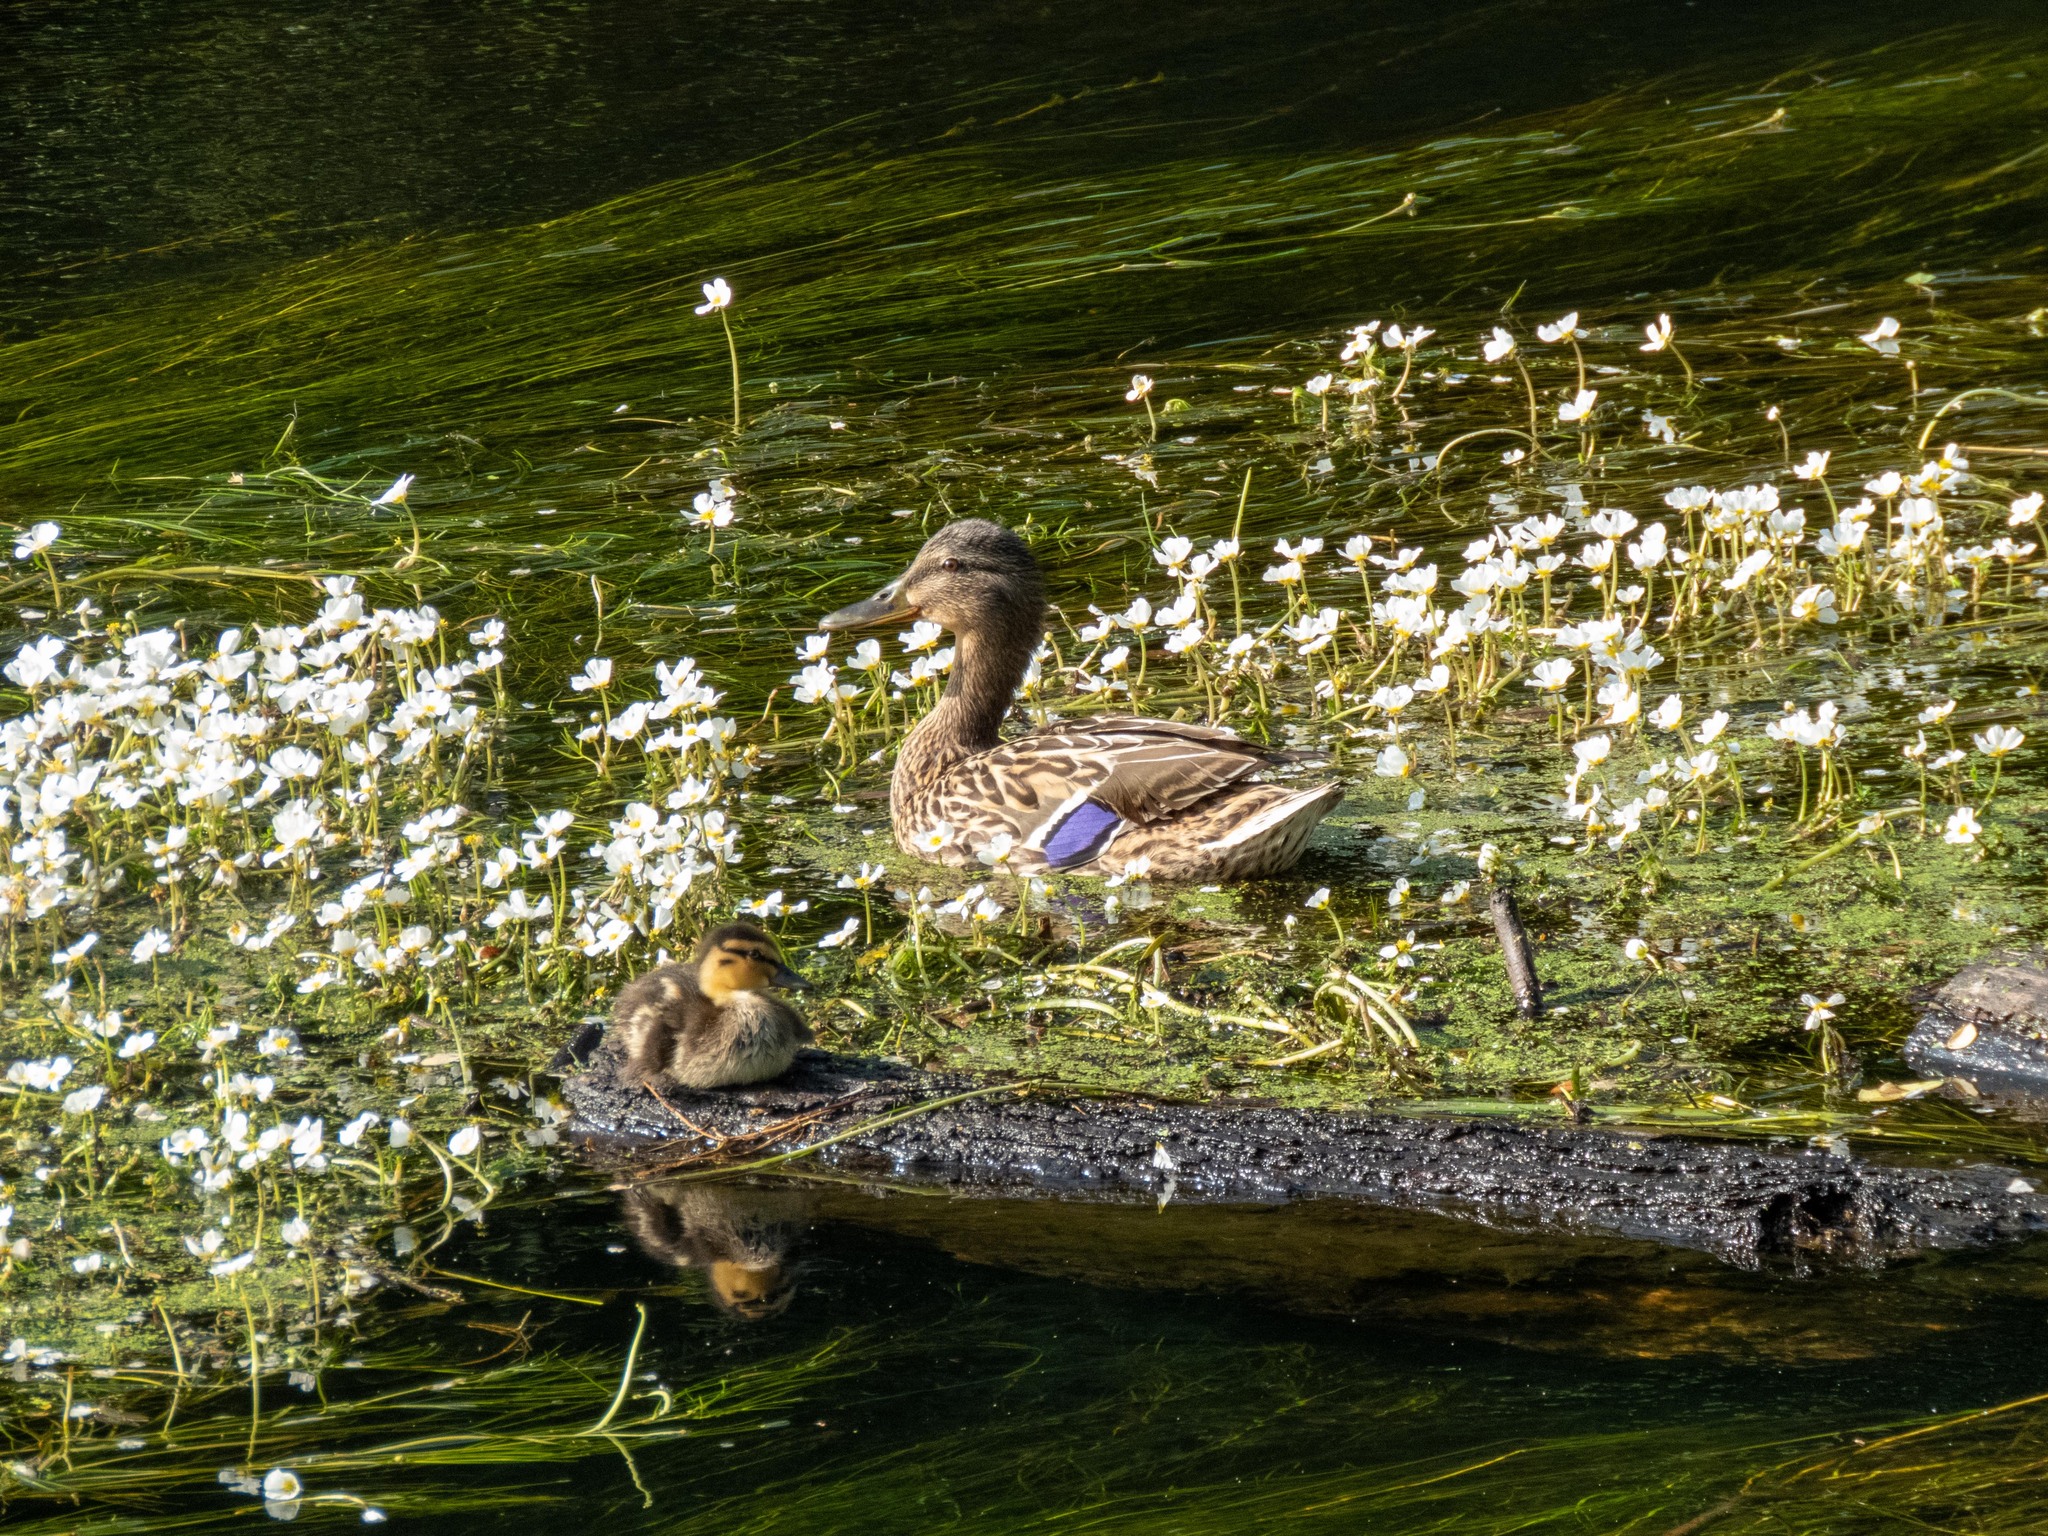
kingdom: Animalia
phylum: Chordata
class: Aves
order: Anseriformes
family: Anatidae
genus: Anas
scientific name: Anas platyrhynchos
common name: Mallard
